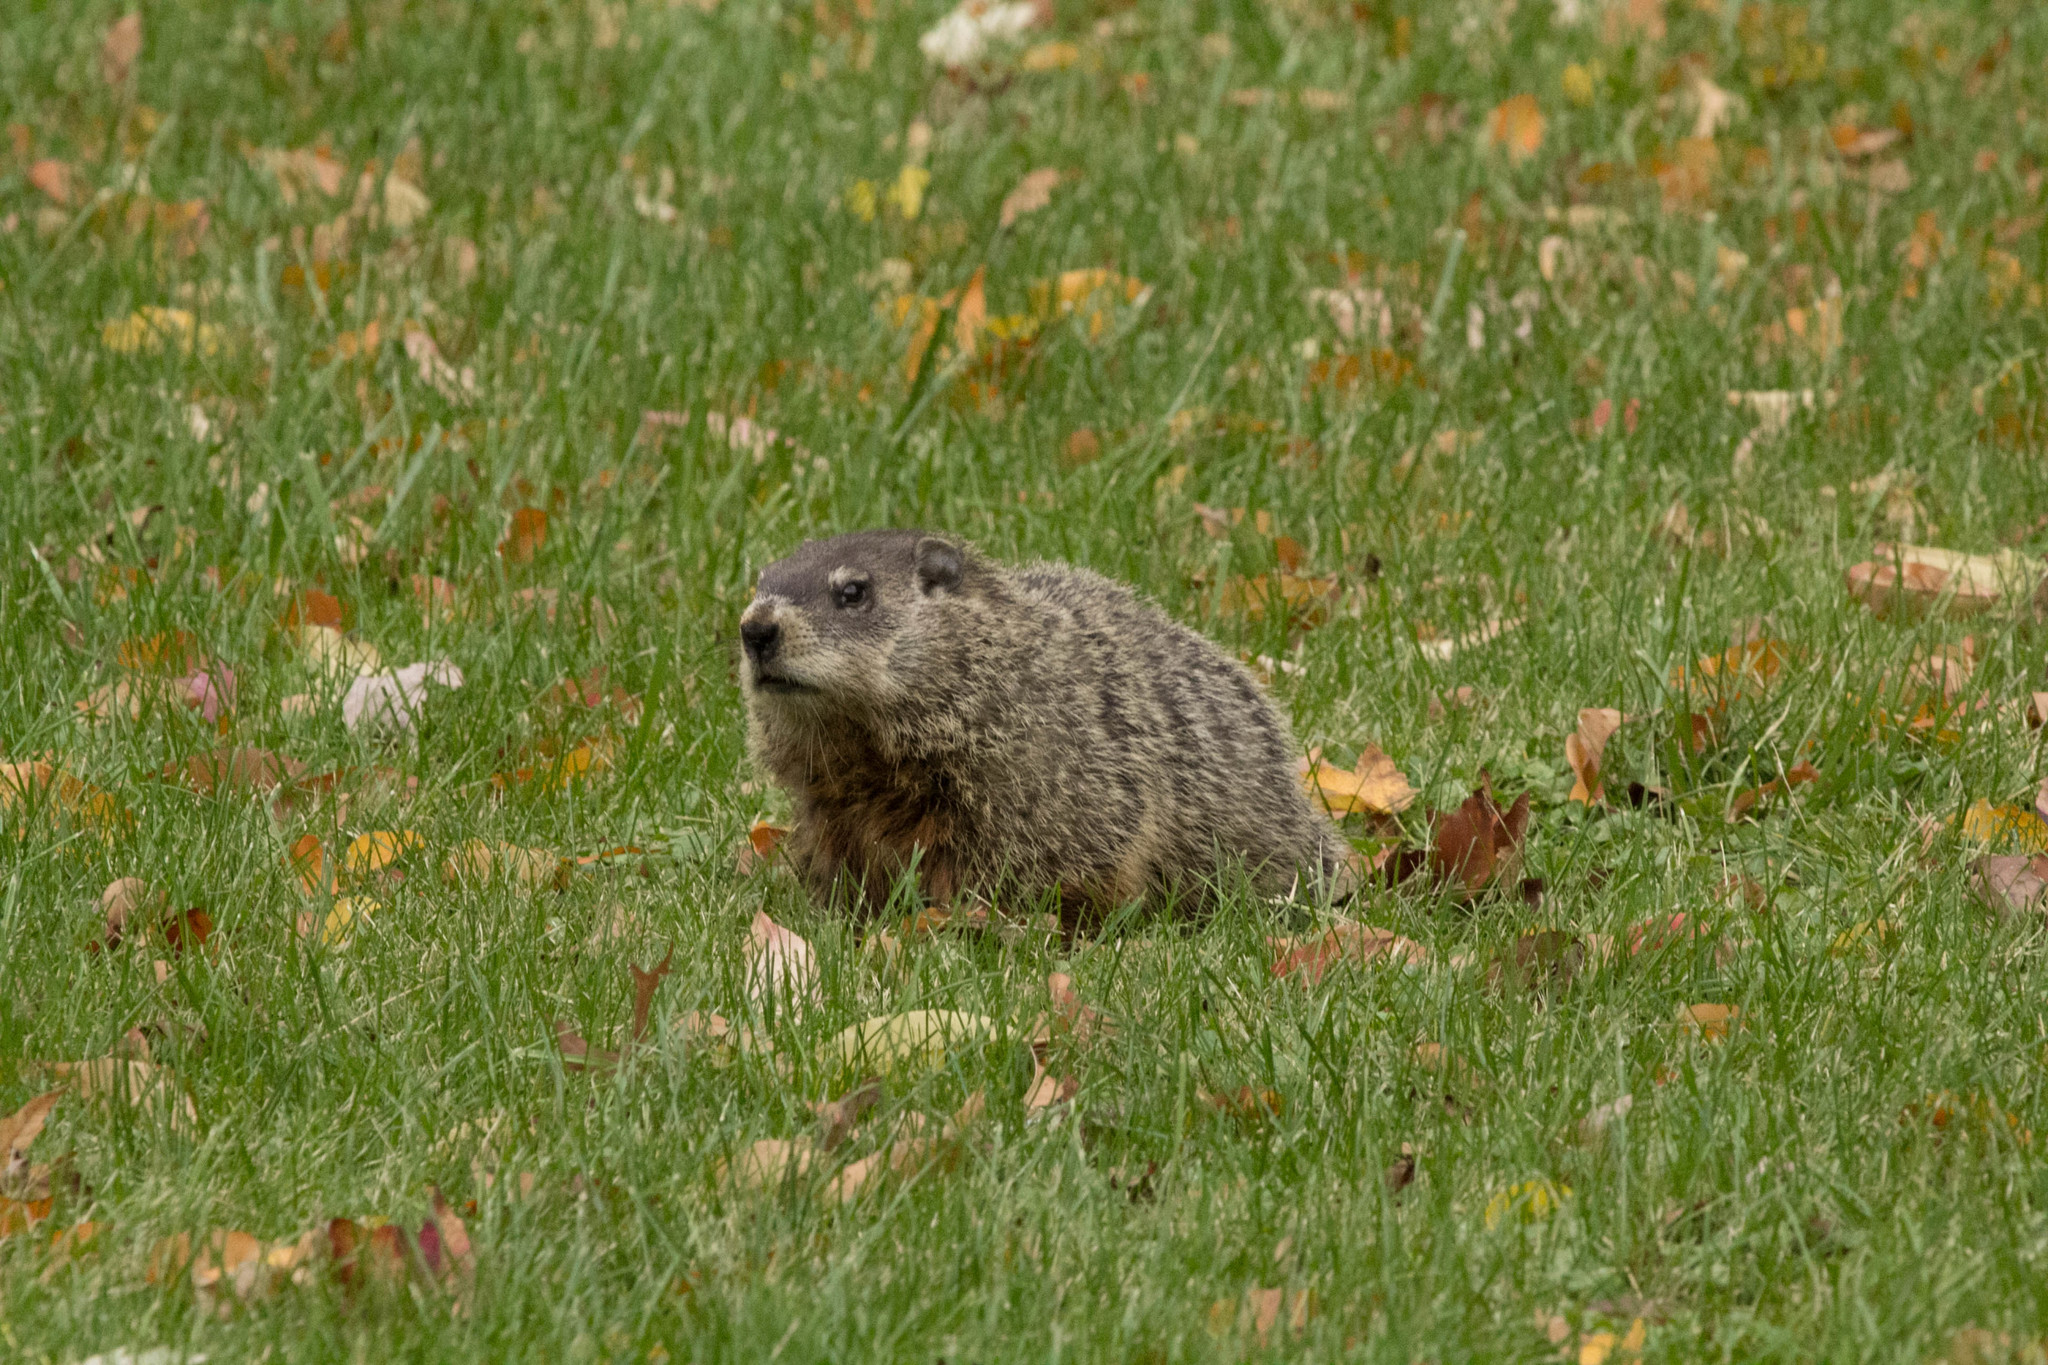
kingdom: Animalia
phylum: Chordata
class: Mammalia
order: Rodentia
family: Sciuridae
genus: Marmota
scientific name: Marmota monax
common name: Groundhog
